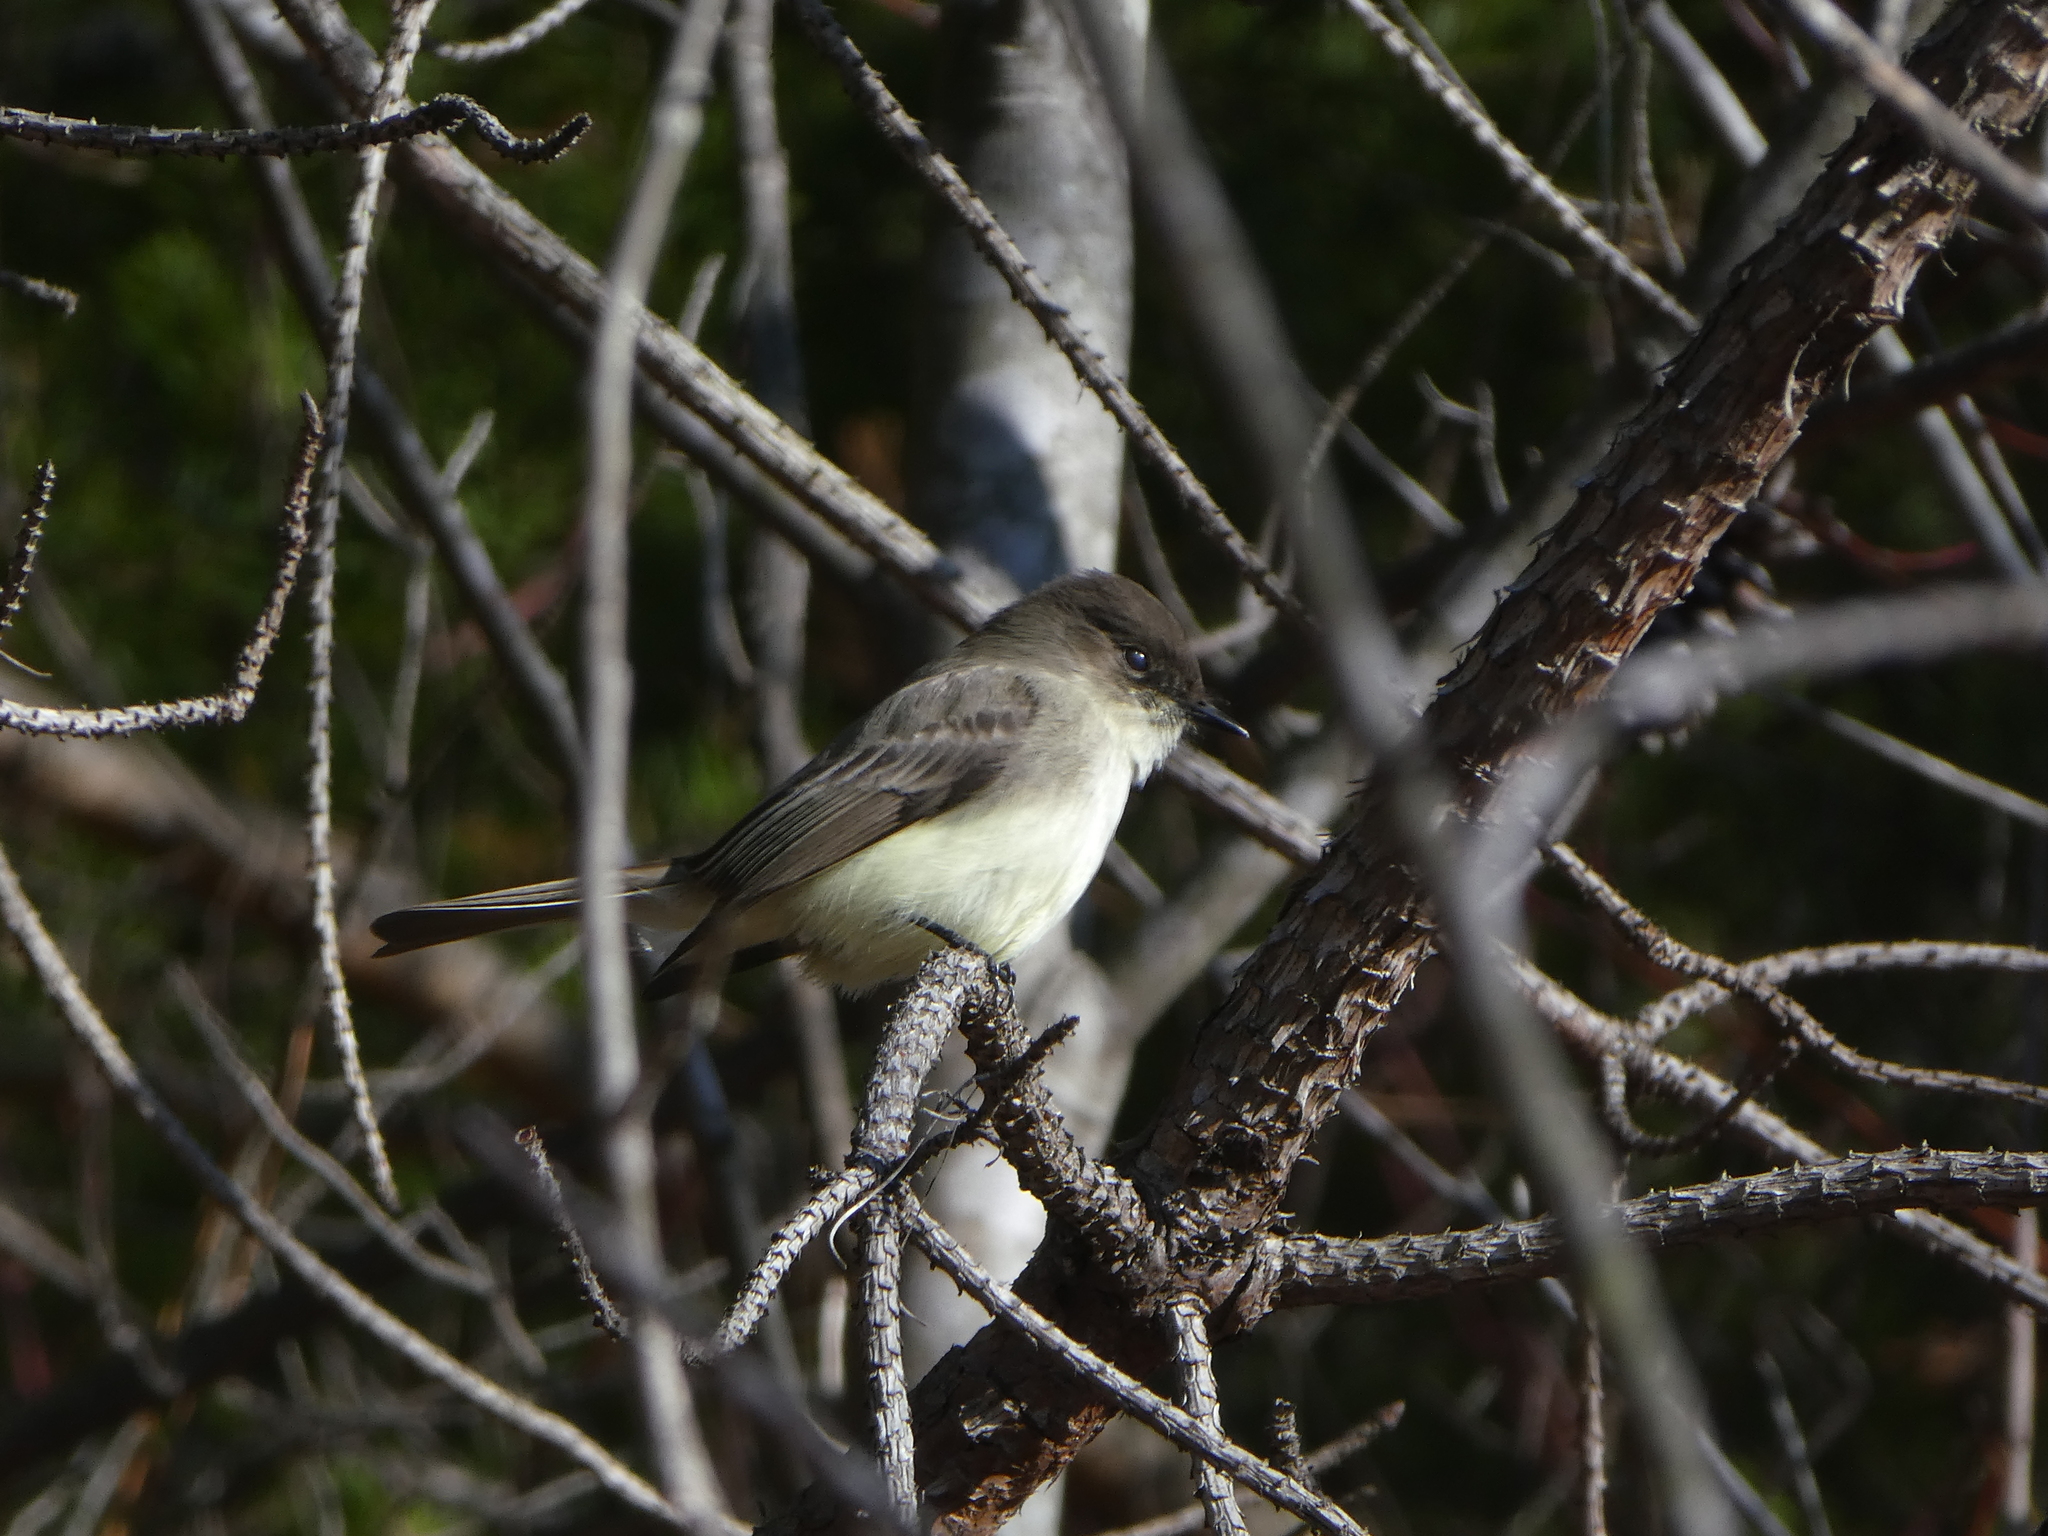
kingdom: Animalia
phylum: Chordata
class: Aves
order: Passeriformes
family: Tyrannidae
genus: Sayornis
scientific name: Sayornis phoebe
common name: Eastern phoebe
